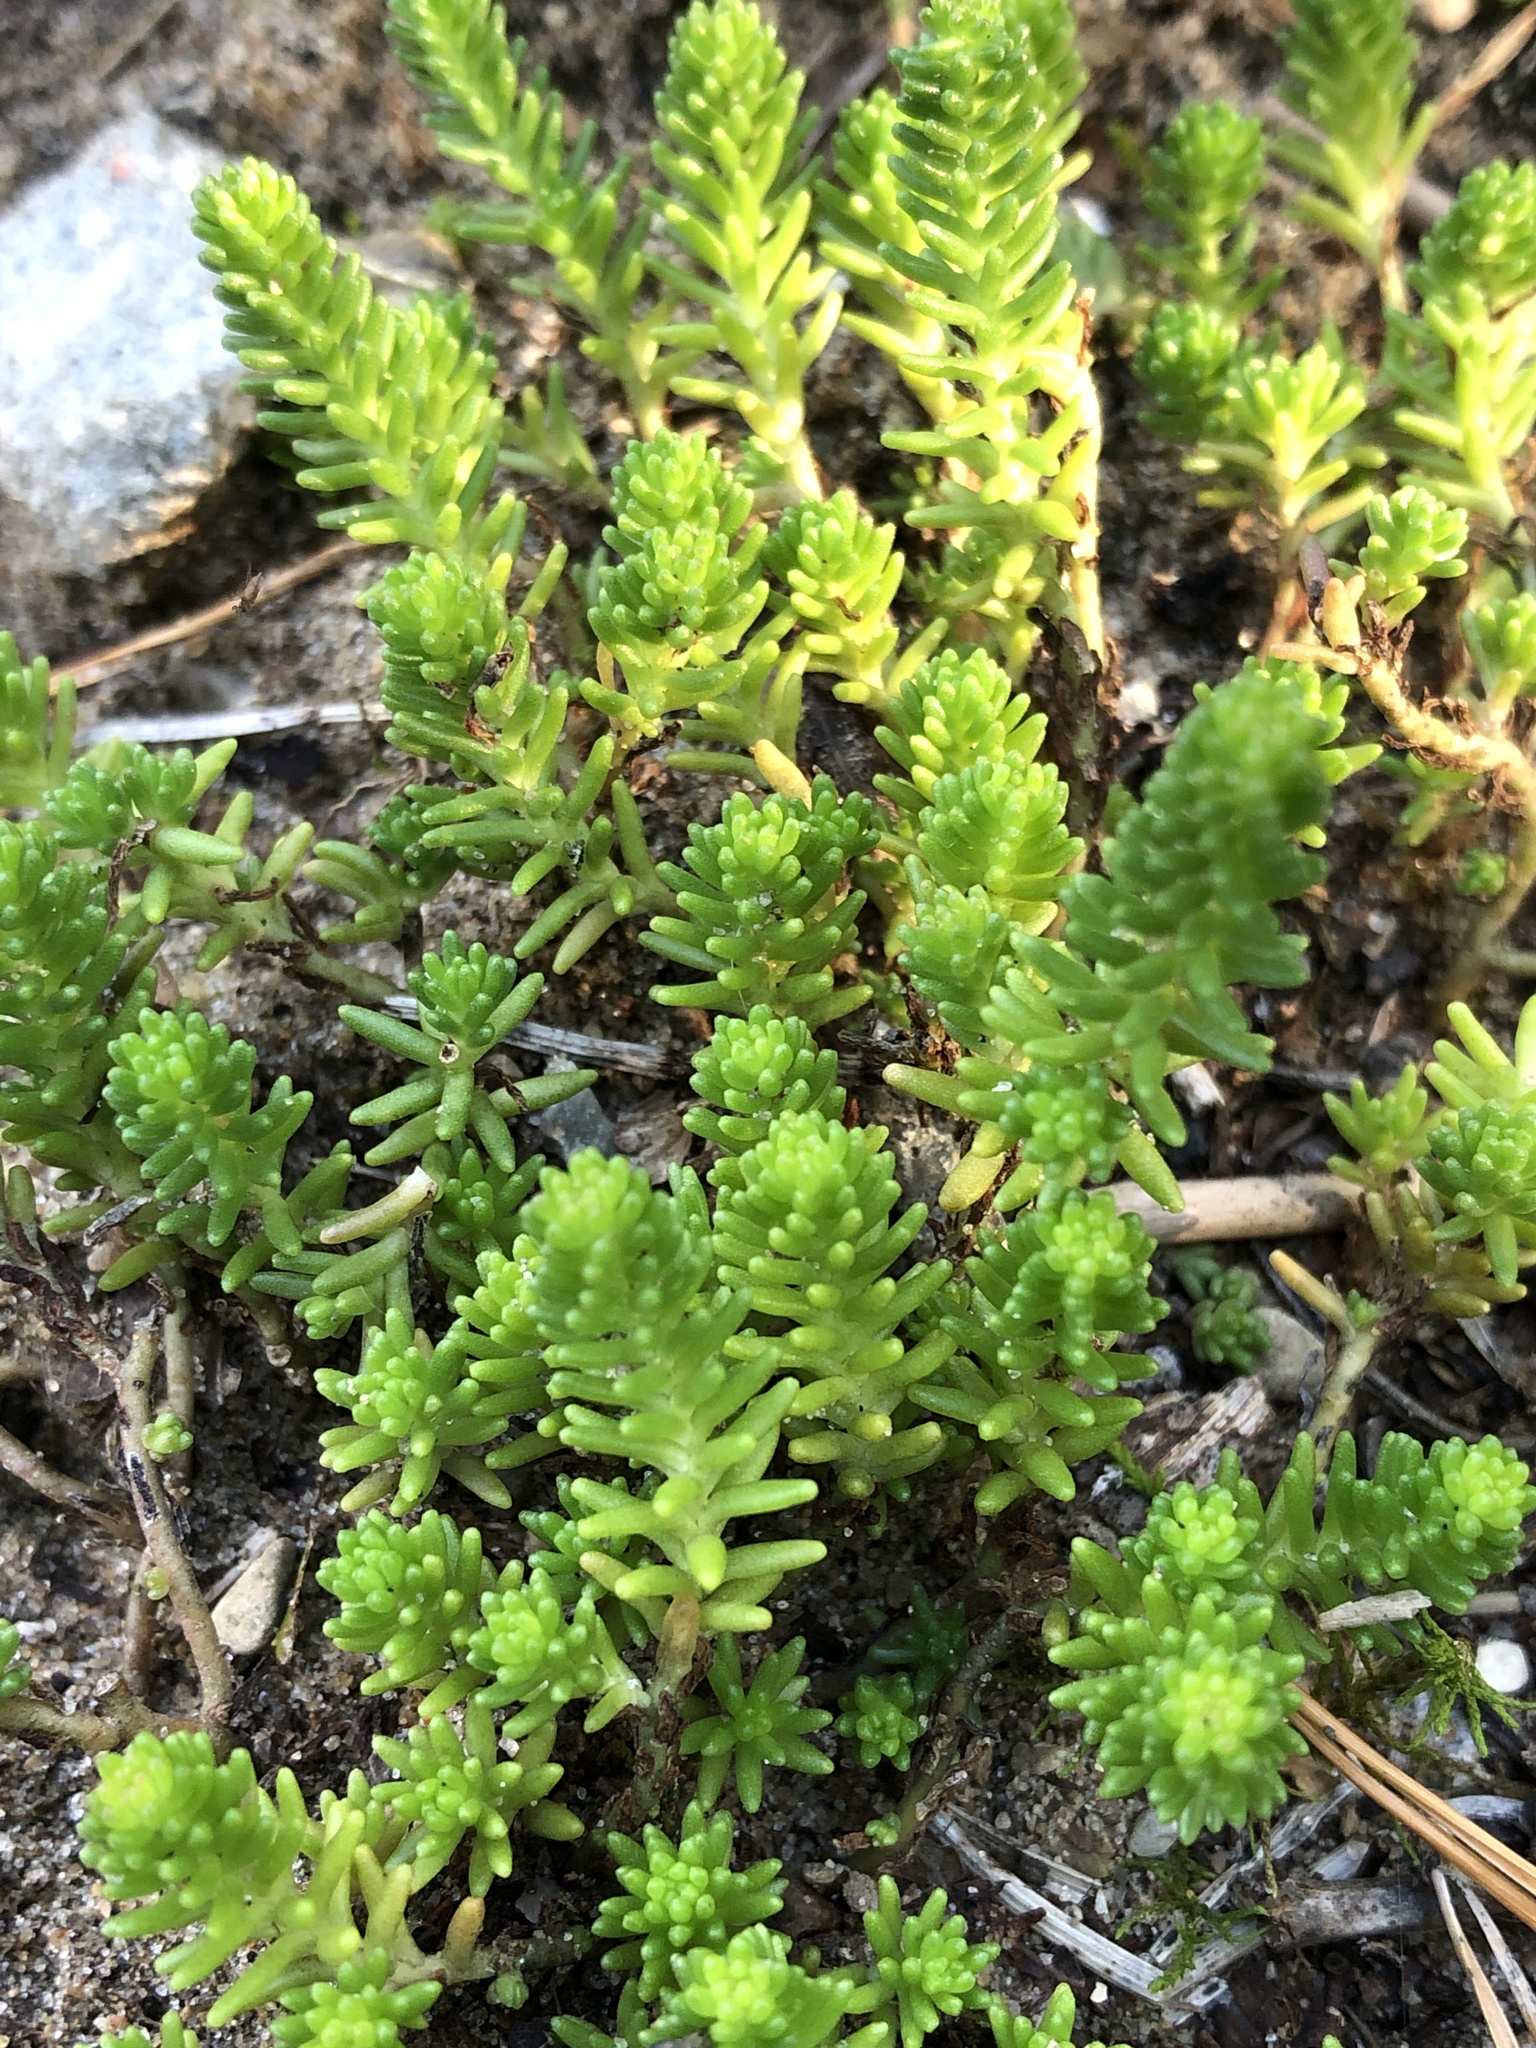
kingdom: Plantae
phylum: Tracheophyta
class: Magnoliopsida
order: Saxifragales
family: Crassulaceae
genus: Sedum
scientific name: Sedum sexangulare
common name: Tasteless stonecrop
